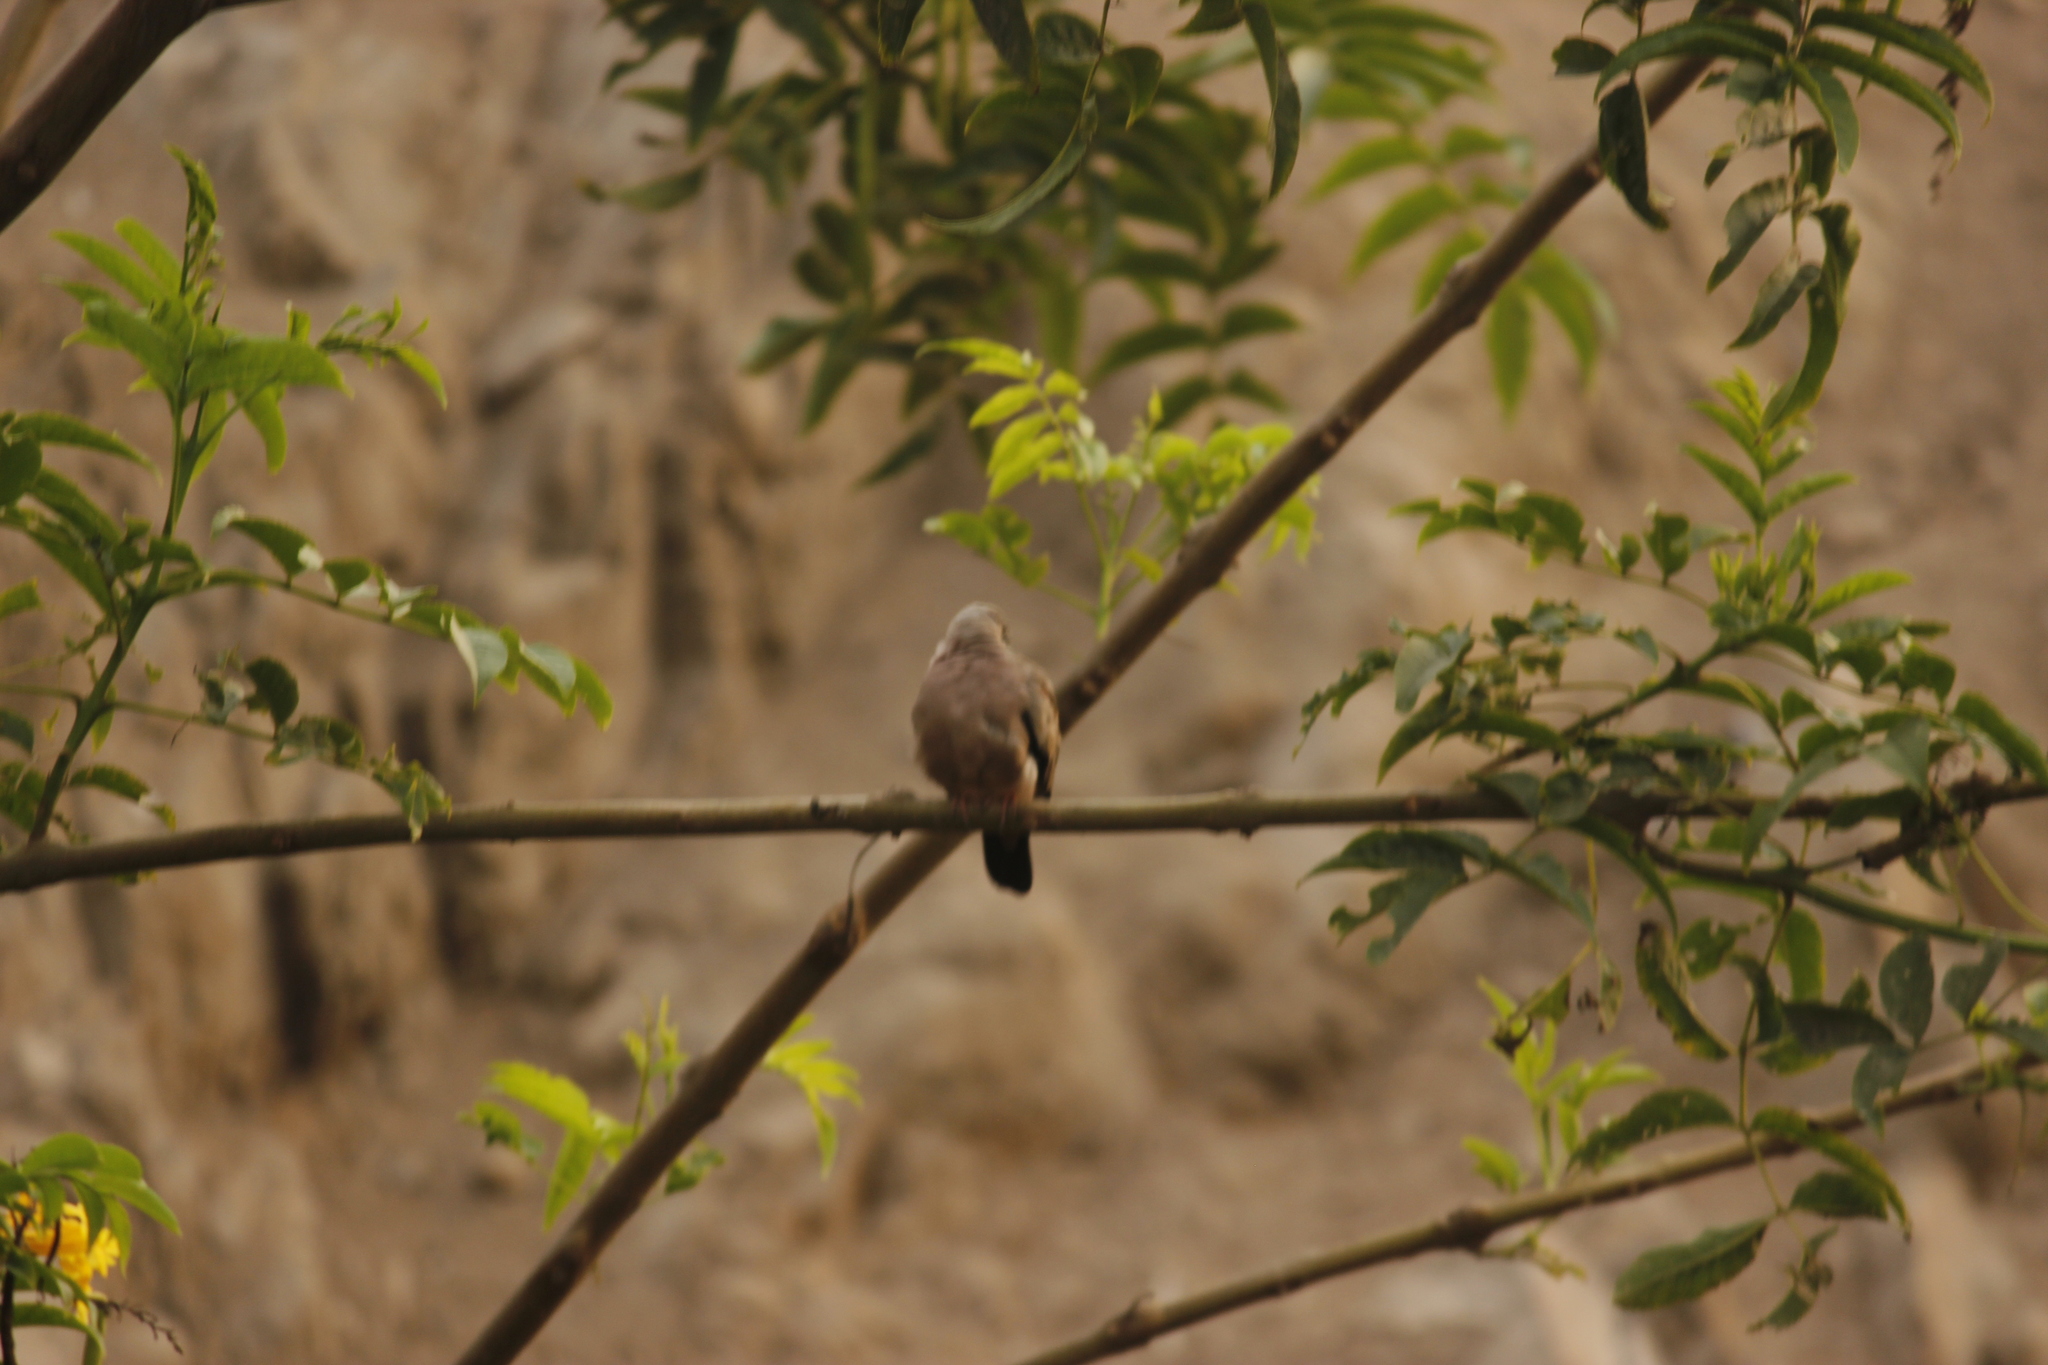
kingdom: Animalia
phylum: Chordata
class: Aves
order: Columbiformes
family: Columbidae
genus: Columbina
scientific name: Columbina cruziana
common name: Croaking ground dove
